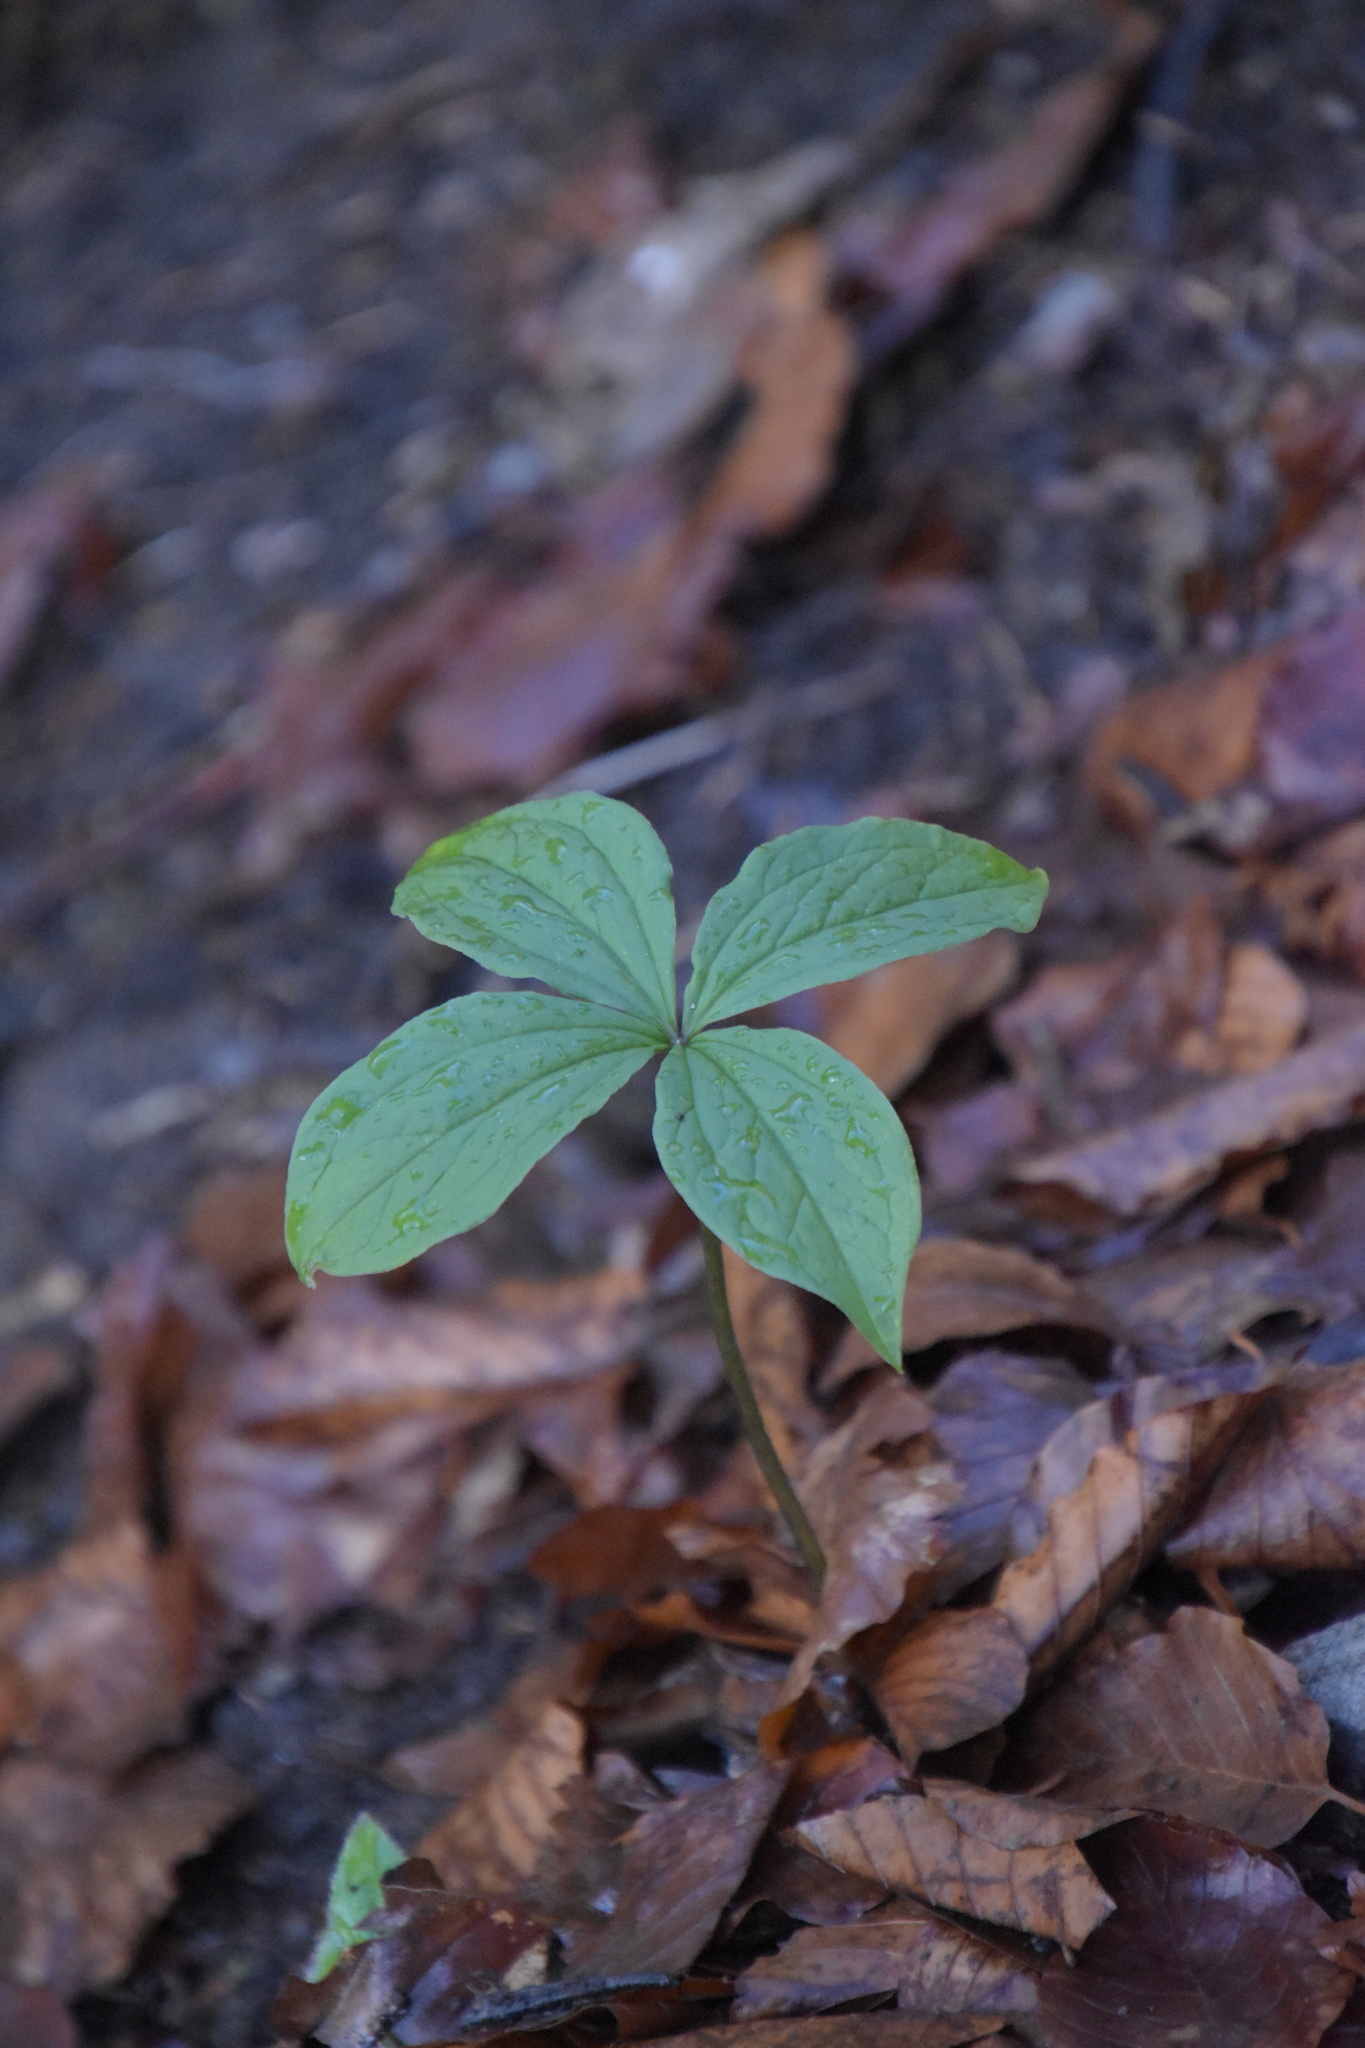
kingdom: Plantae
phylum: Tracheophyta
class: Liliopsida
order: Liliales
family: Melanthiaceae
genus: Paris
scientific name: Paris quadrifolia
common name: Herb-paris
